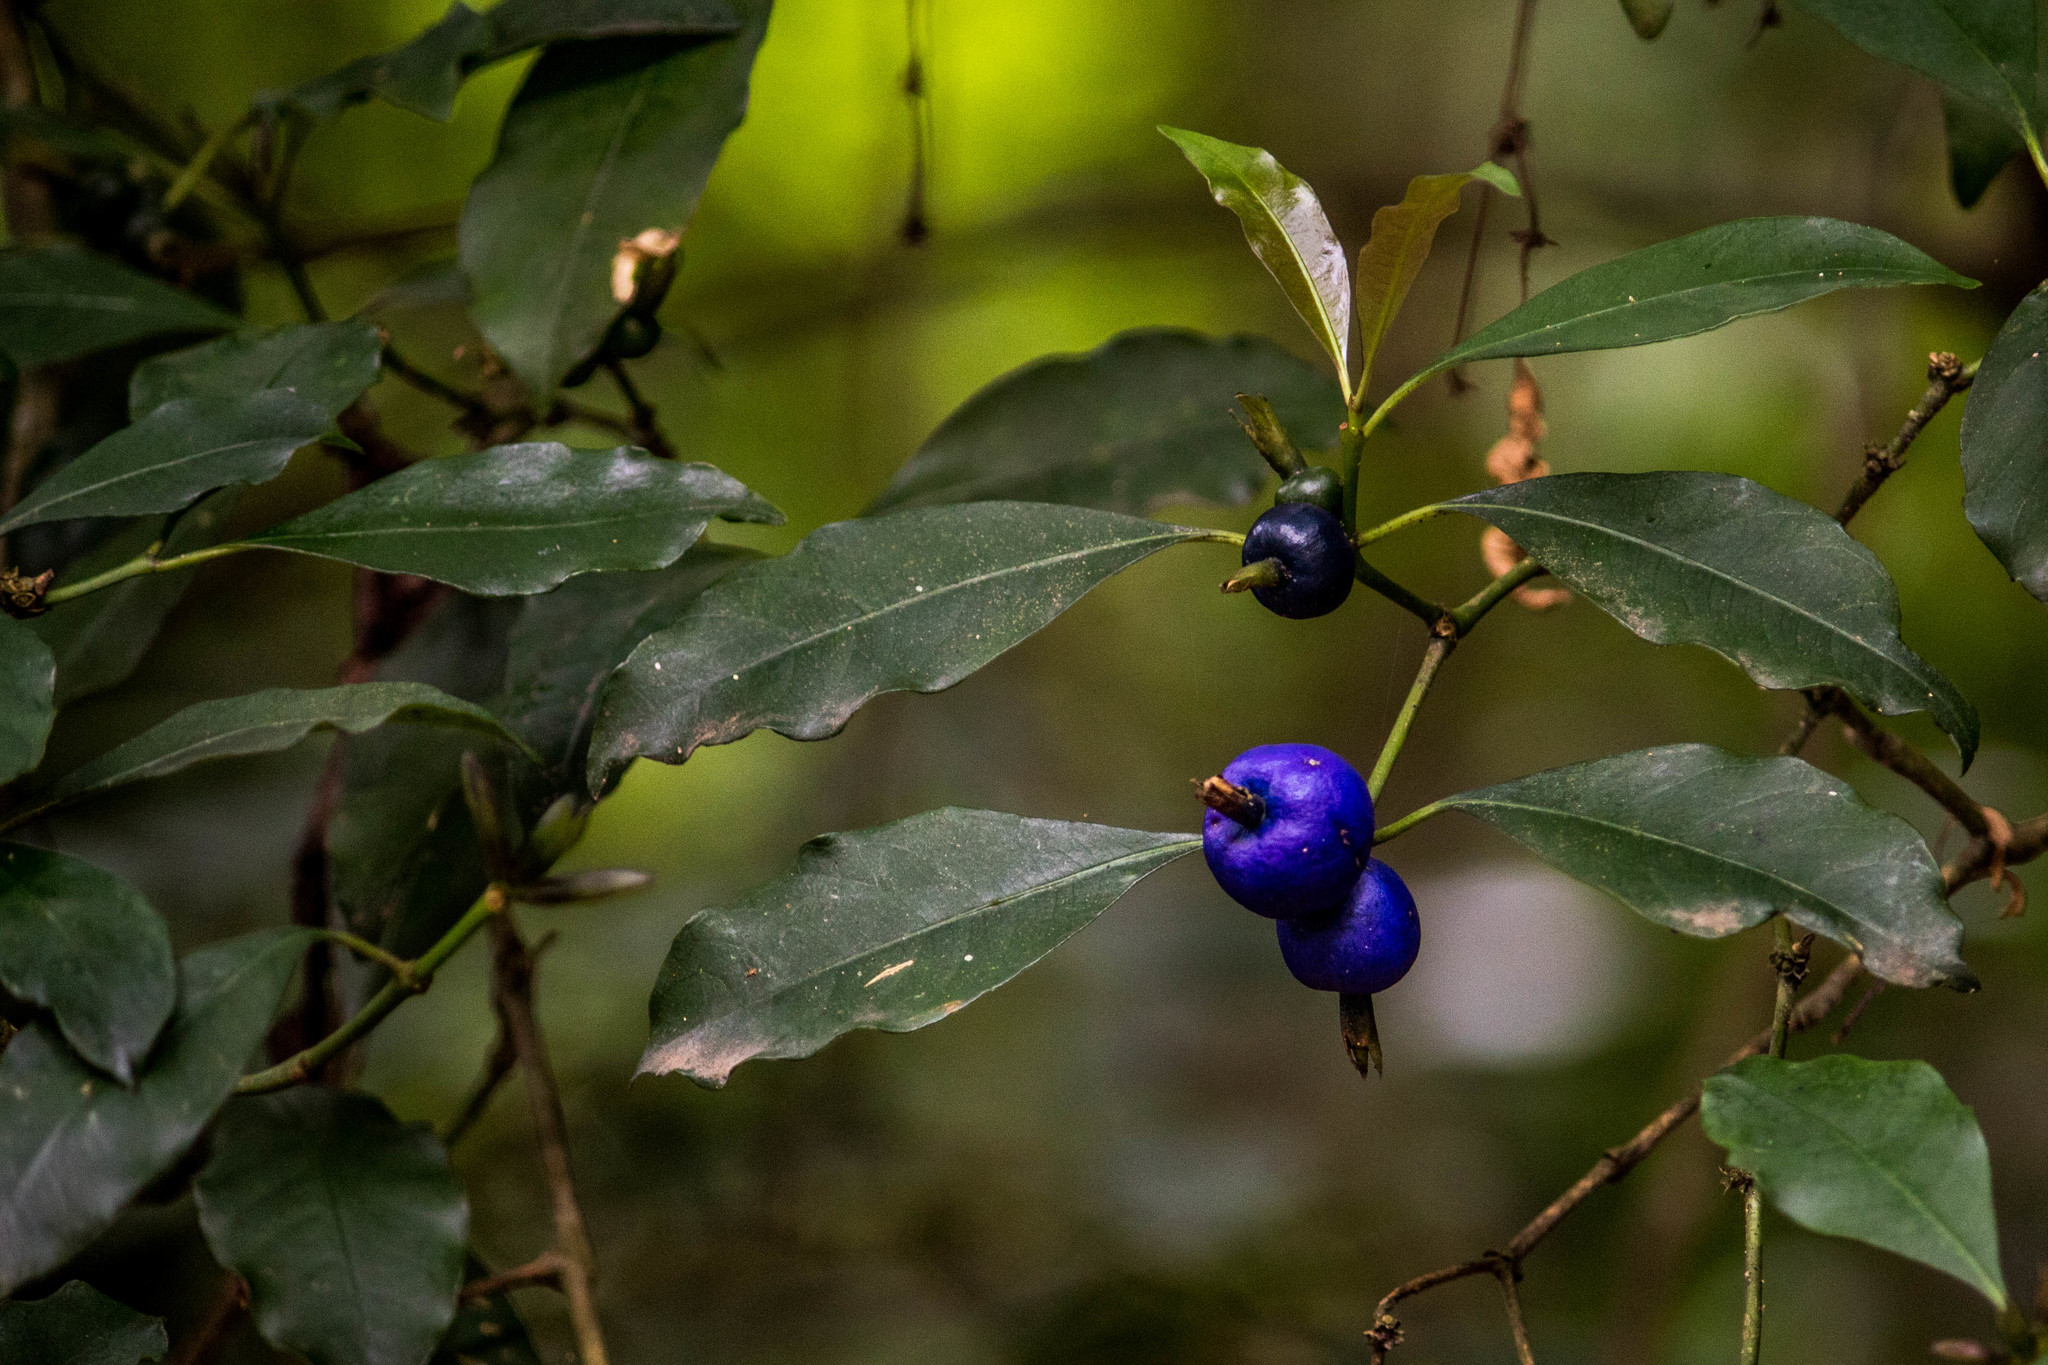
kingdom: Plantae
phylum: Tracheophyta
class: Magnoliopsida
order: Gentianales
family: Rubiaceae
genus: Psychotria
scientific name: Psychotria suterella
